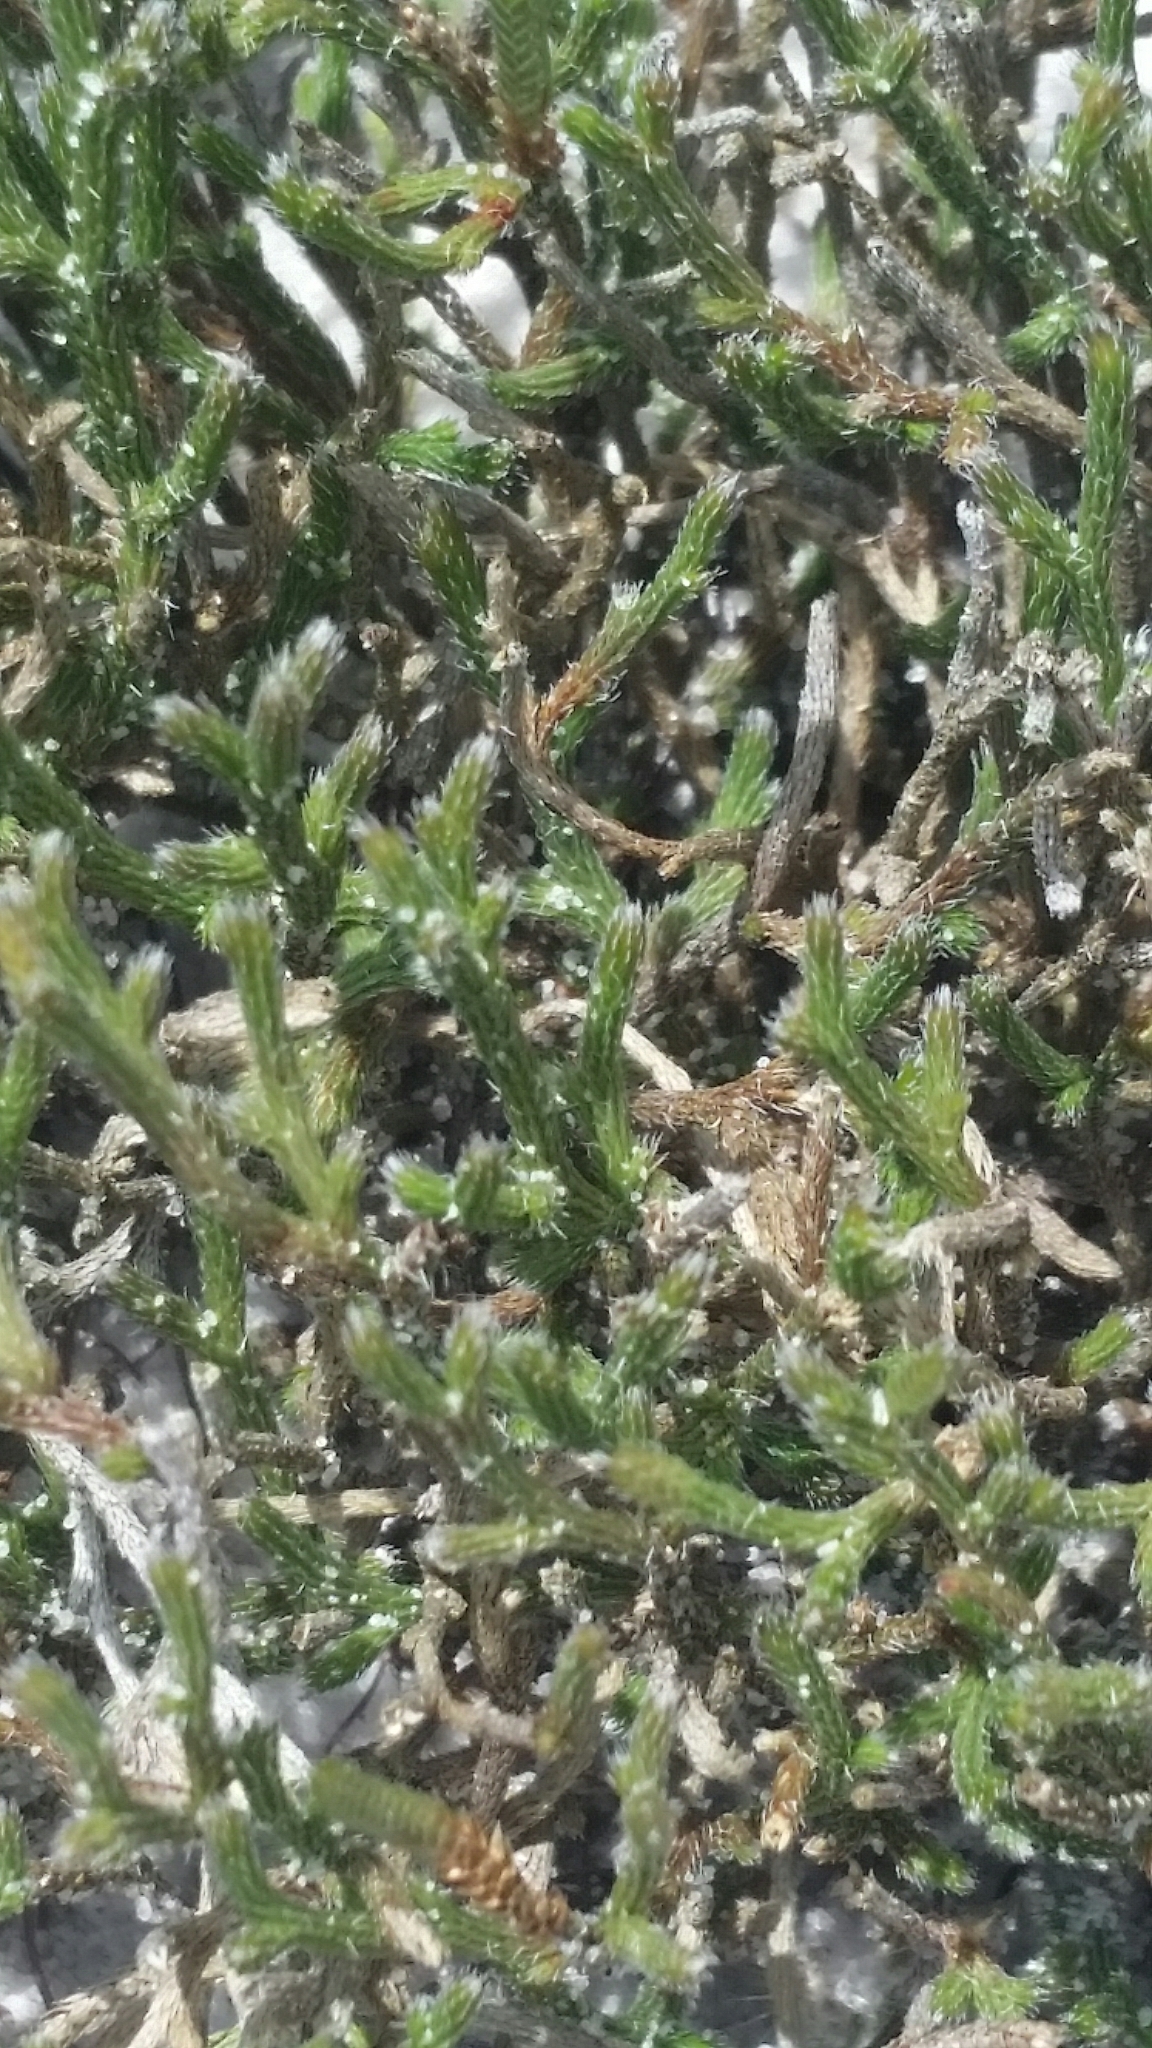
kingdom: Plantae
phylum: Tracheophyta
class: Lycopodiopsida
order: Selaginellales
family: Selaginellaceae
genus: Selaginella
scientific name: Selaginella arenicola
